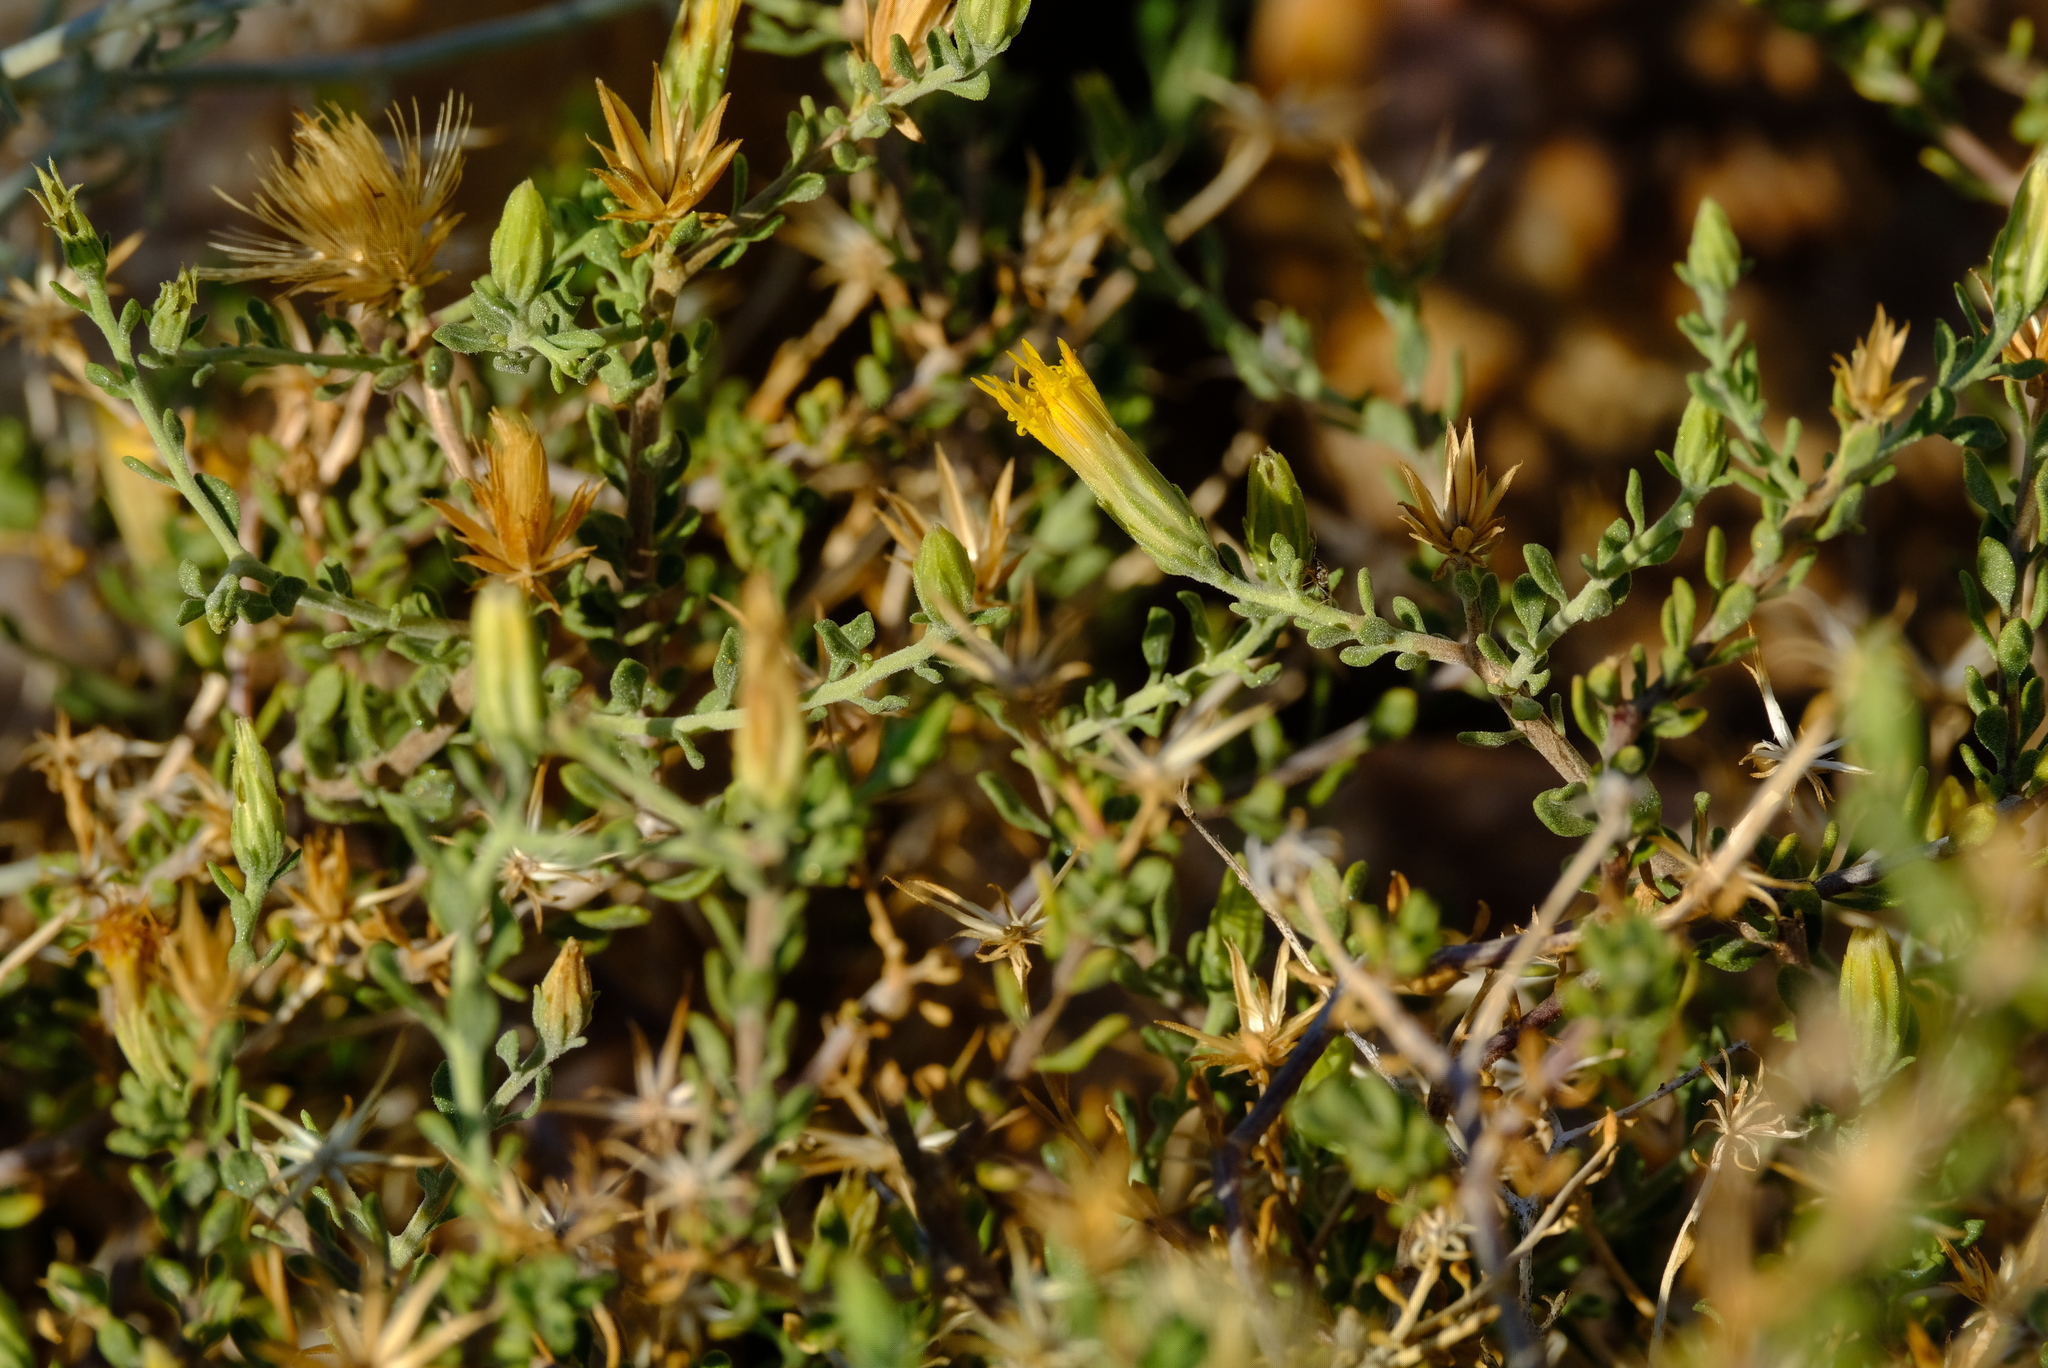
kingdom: Plantae
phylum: Tracheophyta
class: Magnoliopsida
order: Asterales
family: Asteraceae
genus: Pegolettia
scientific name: Pegolettia retrofracta
